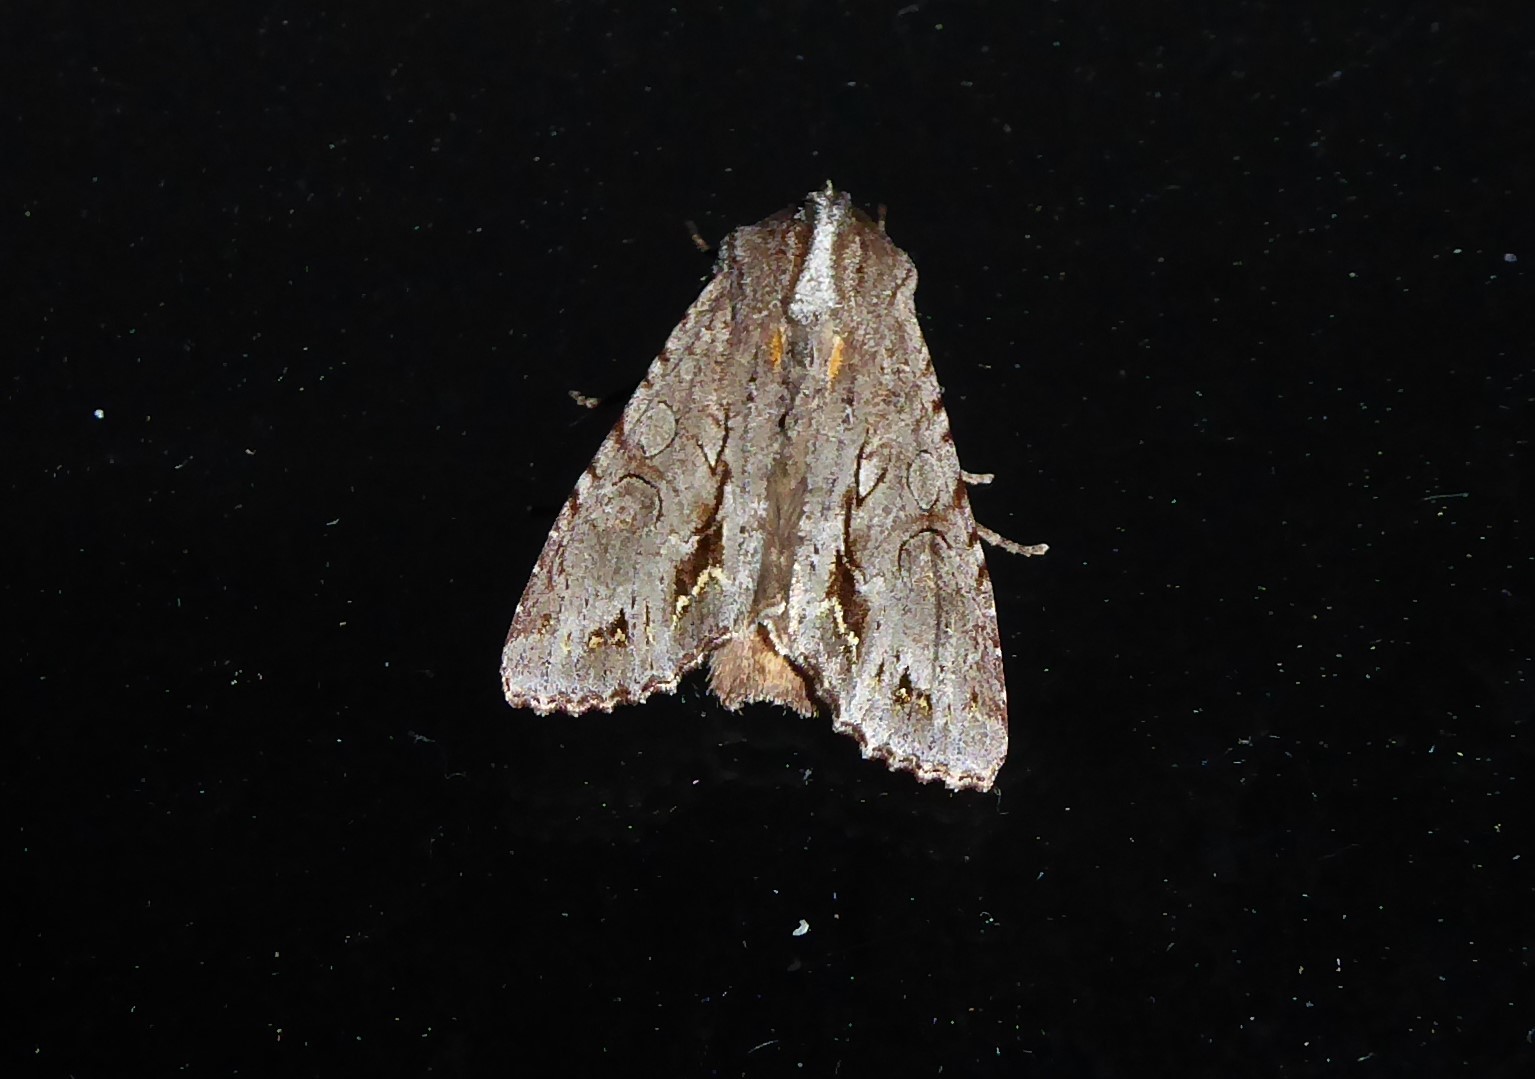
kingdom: Animalia
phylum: Arthropoda
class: Insecta
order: Lepidoptera
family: Noctuidae
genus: Ichneutica
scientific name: Ichneutica
